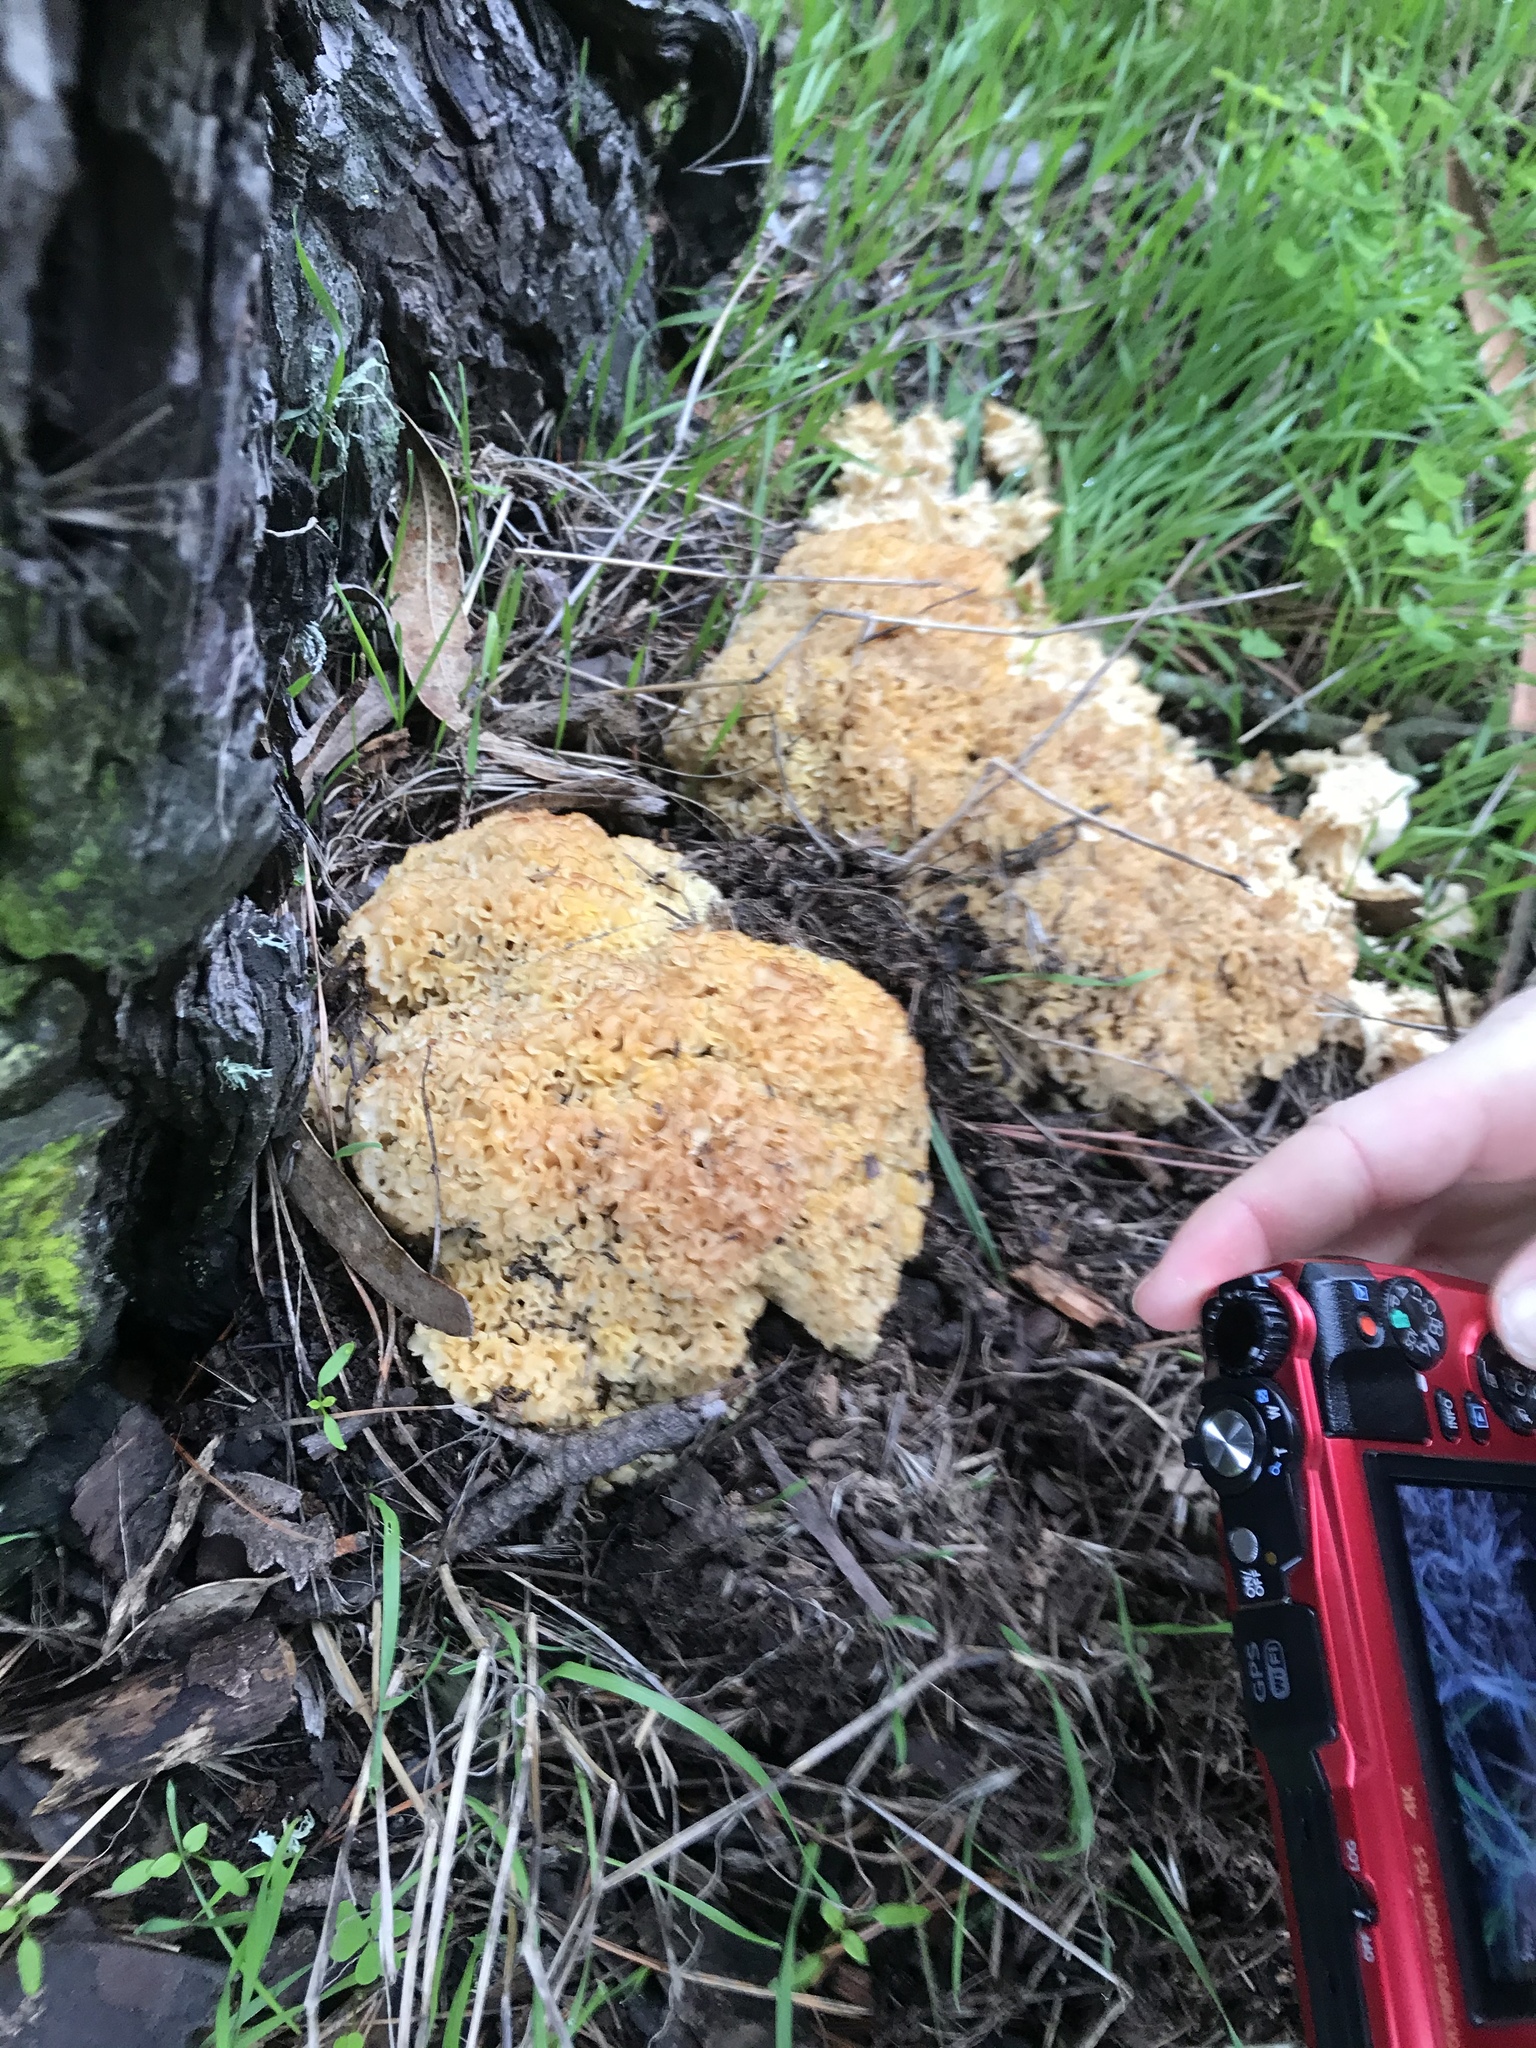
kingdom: Fungi
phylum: Basidiomycota
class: Agaricomycetes
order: Polyporales
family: Sparassidaceae
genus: Sparassis
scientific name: Sparassis radicata
